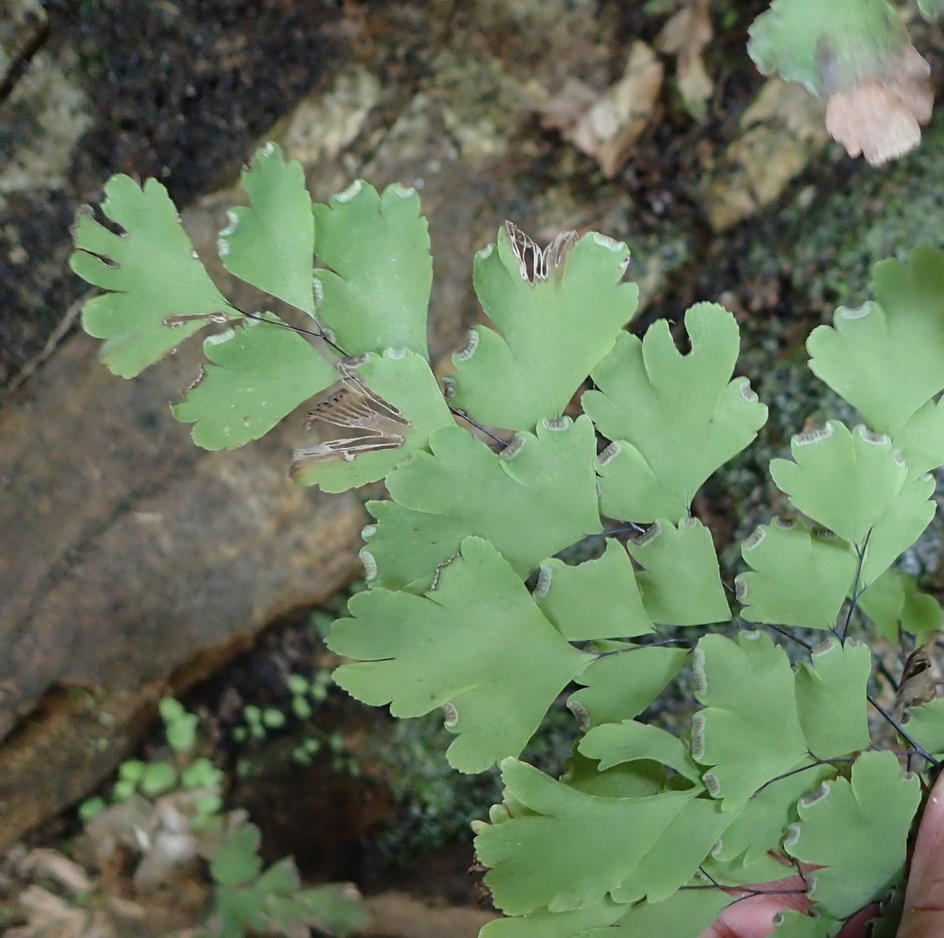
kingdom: Plantae
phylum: Tracheophyta
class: Polypodiopsida
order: Polypodiales
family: Pteridaceae
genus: Adiantum
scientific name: Adiantum capillus-veneris
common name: Maidenhair fern
